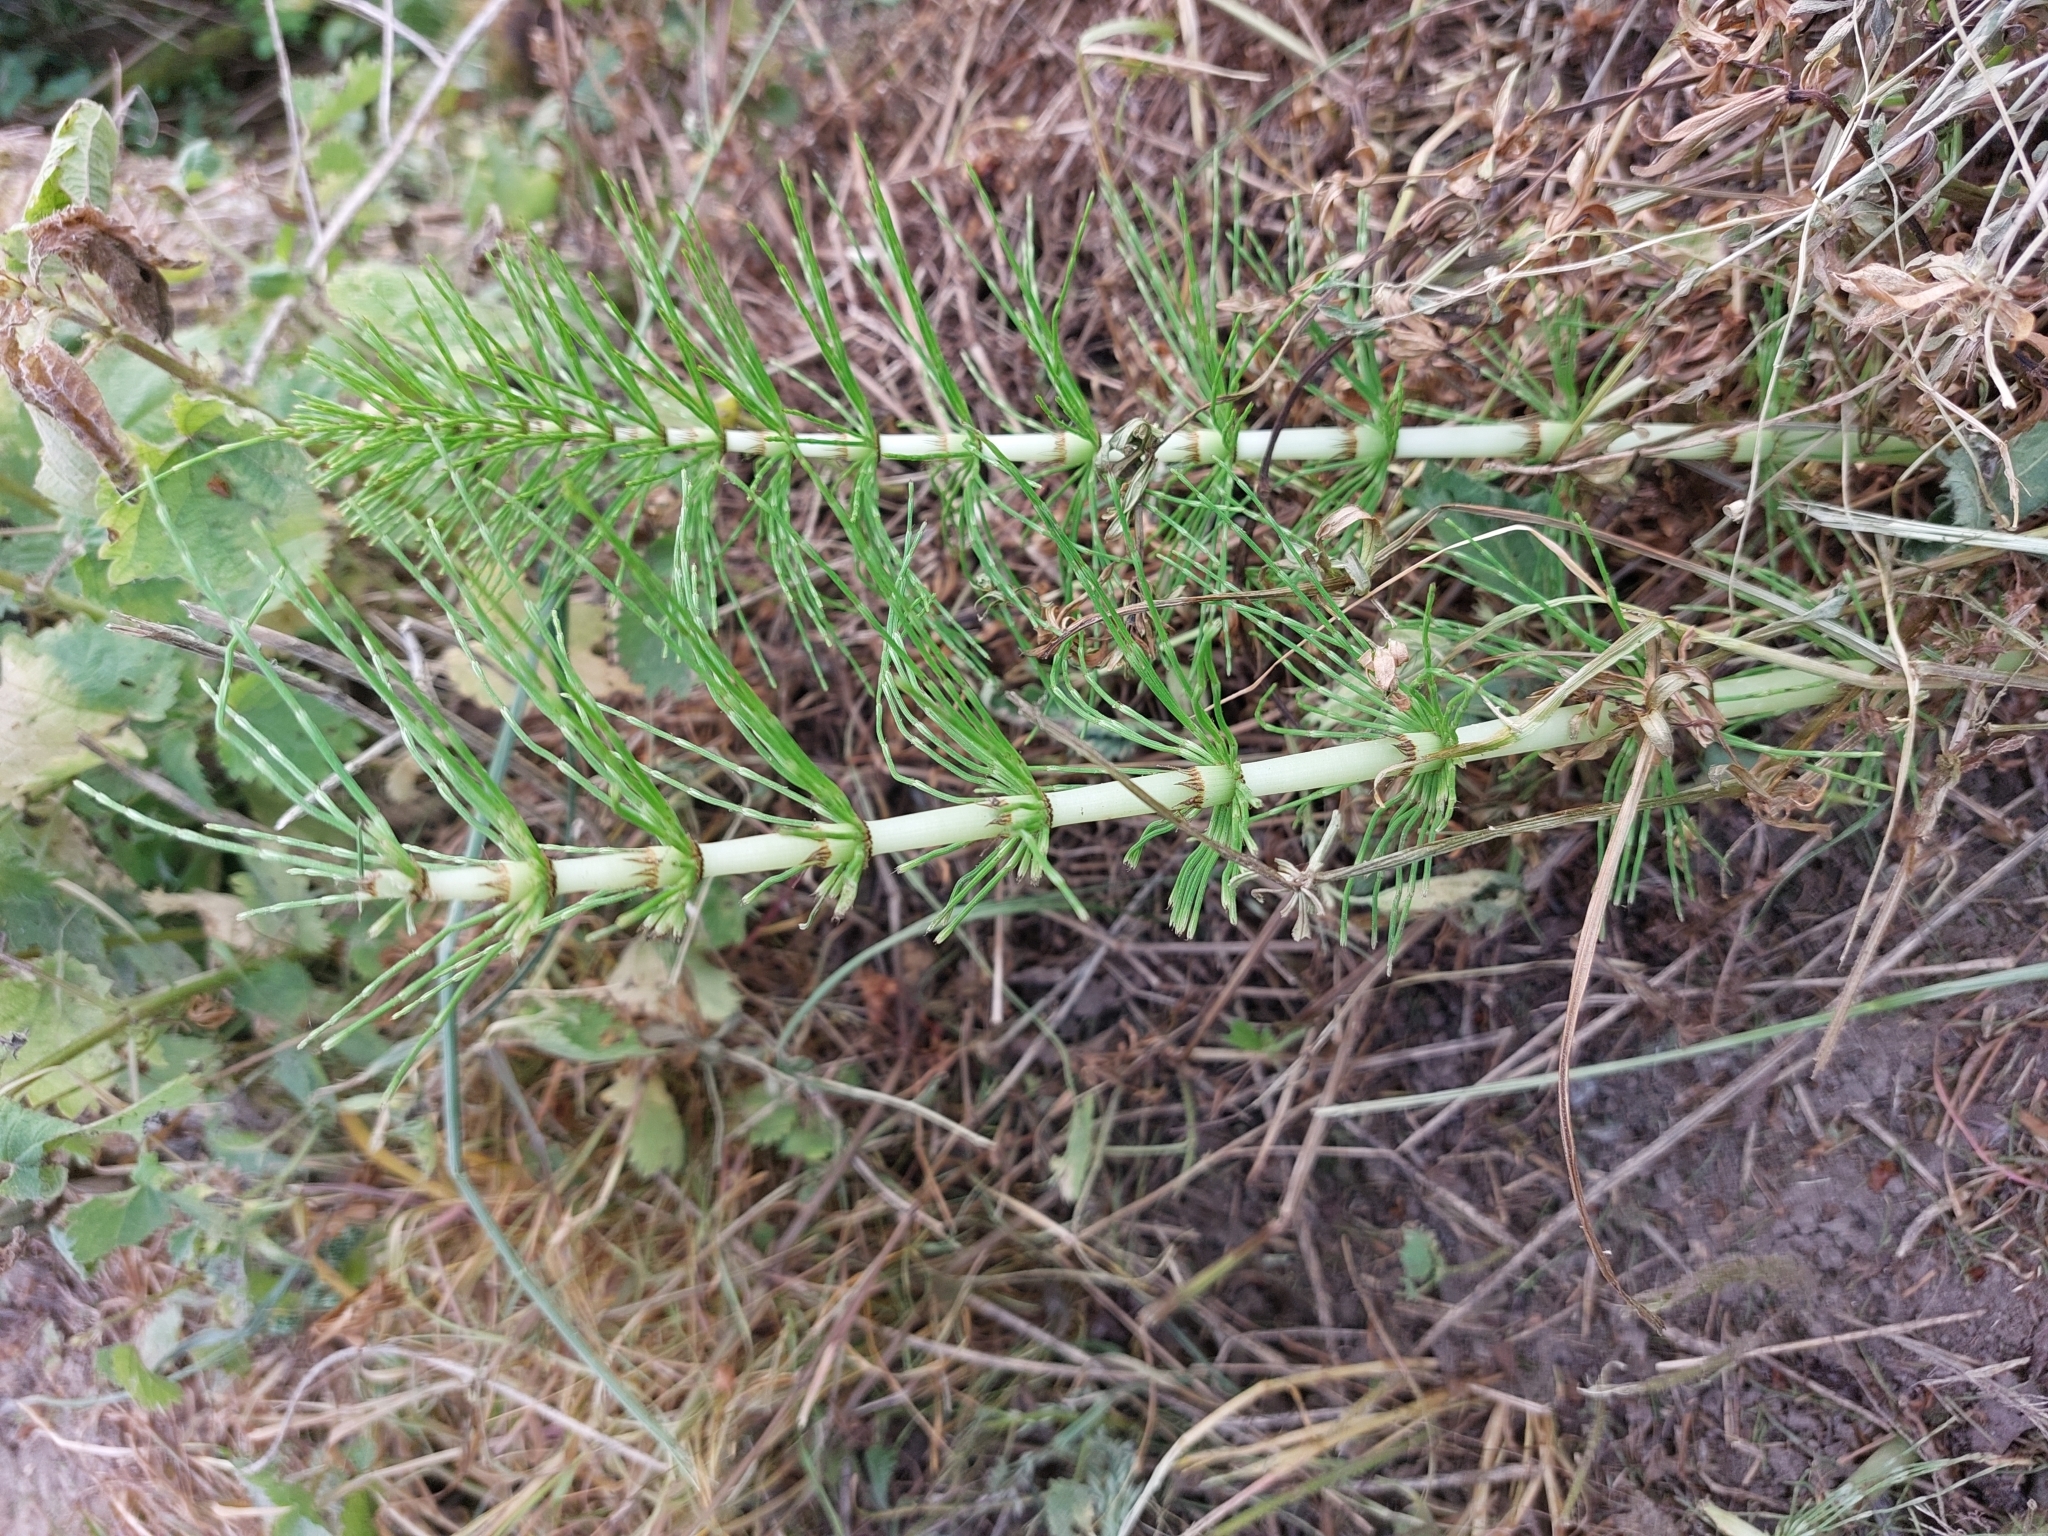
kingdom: Plantae
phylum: Tracheophyta
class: Polypodiopsida
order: Equisetales
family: Equisetaceae
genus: Equisetum
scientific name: Equisetum telmateia
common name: Great horsetail
